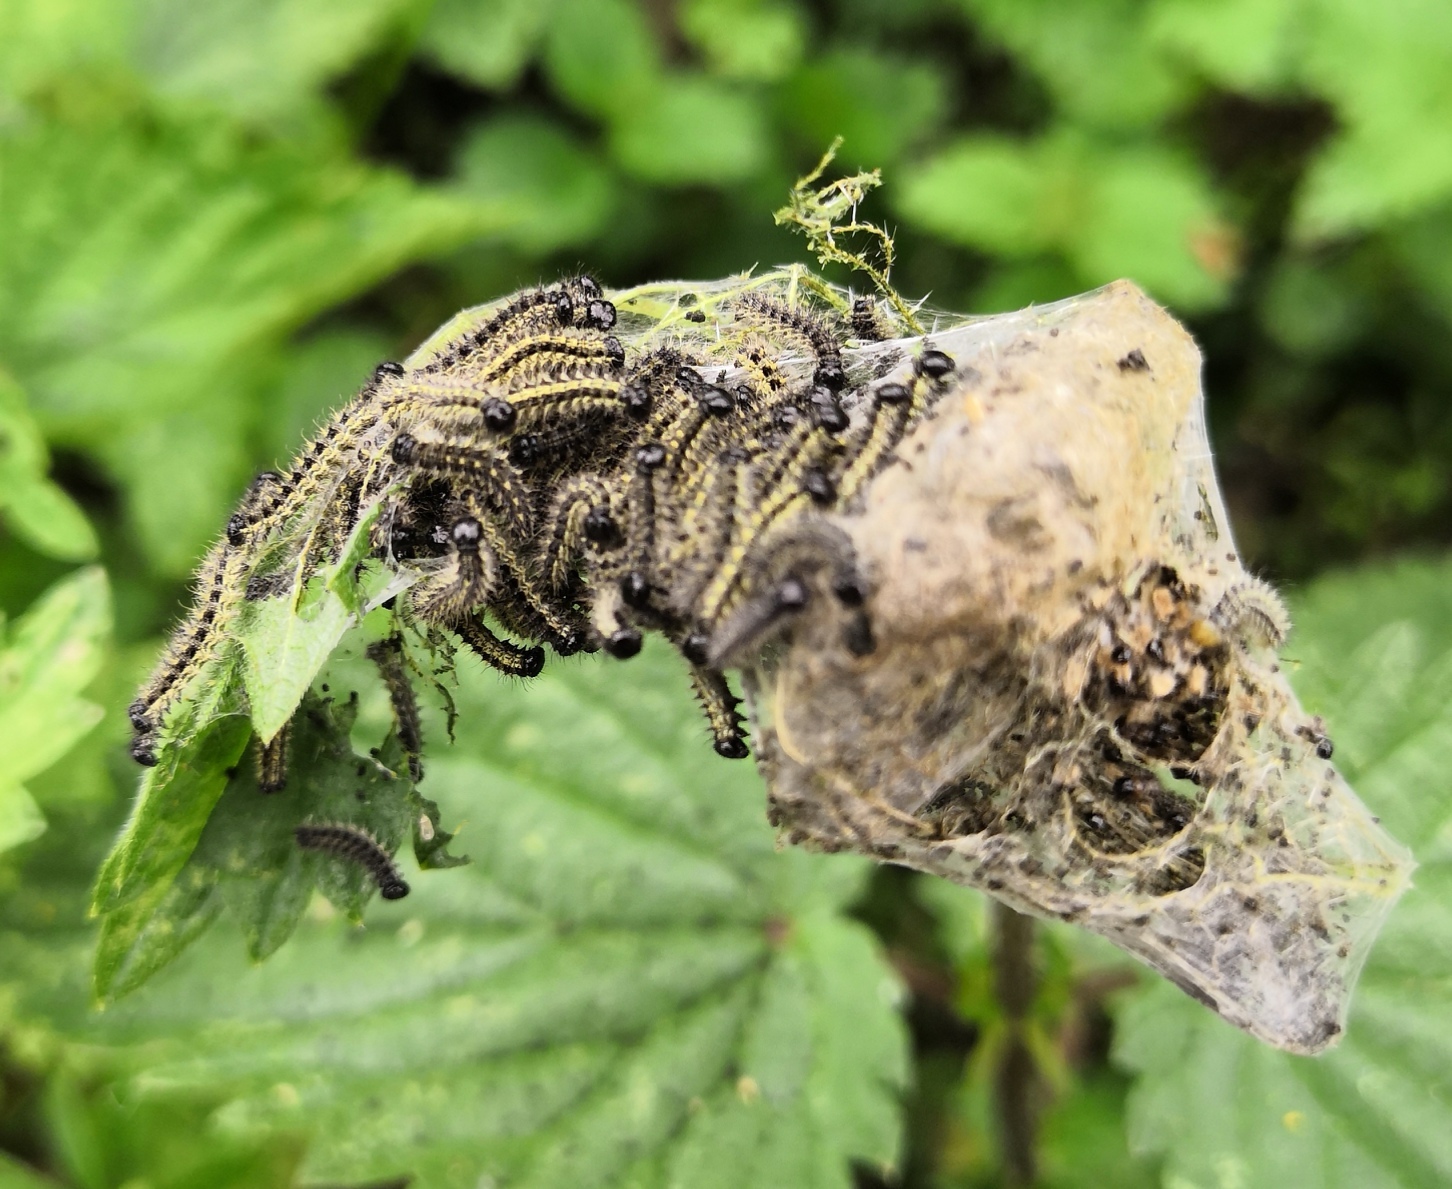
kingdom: Animalia
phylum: Arthropoda
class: Insecta
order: Lepidoptera
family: Nymphalidae
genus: Aglais
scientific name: Aglais urticae
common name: Small tortoiseshell
